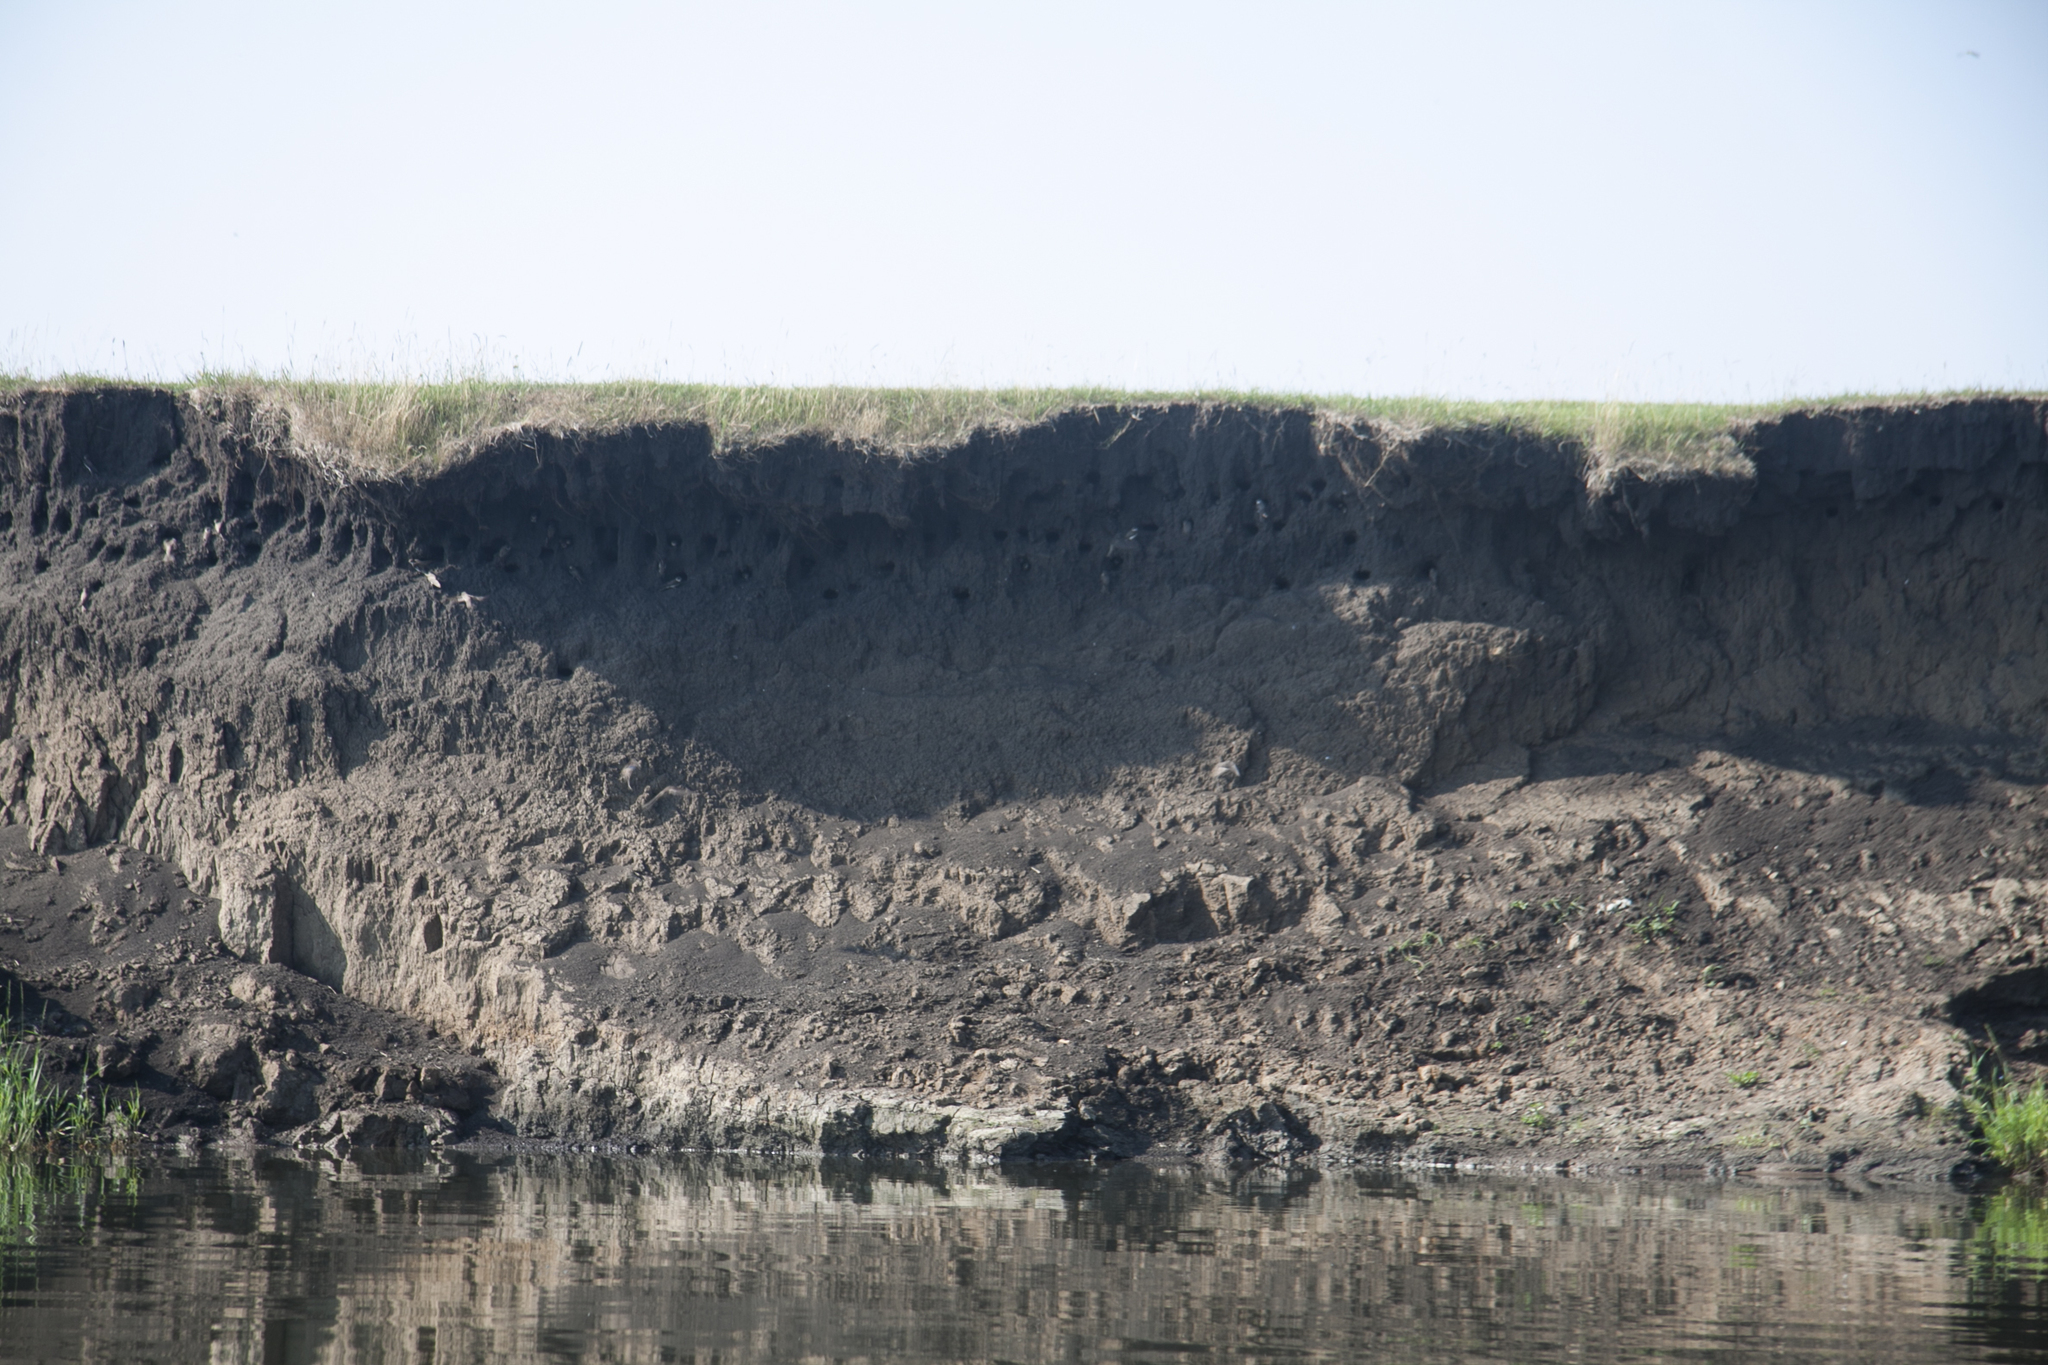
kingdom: Animalia
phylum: Chordata
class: Aves
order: Passeriformes
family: Hirundinidae
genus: Riparia
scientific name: Riparia riparia
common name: Sand martin
